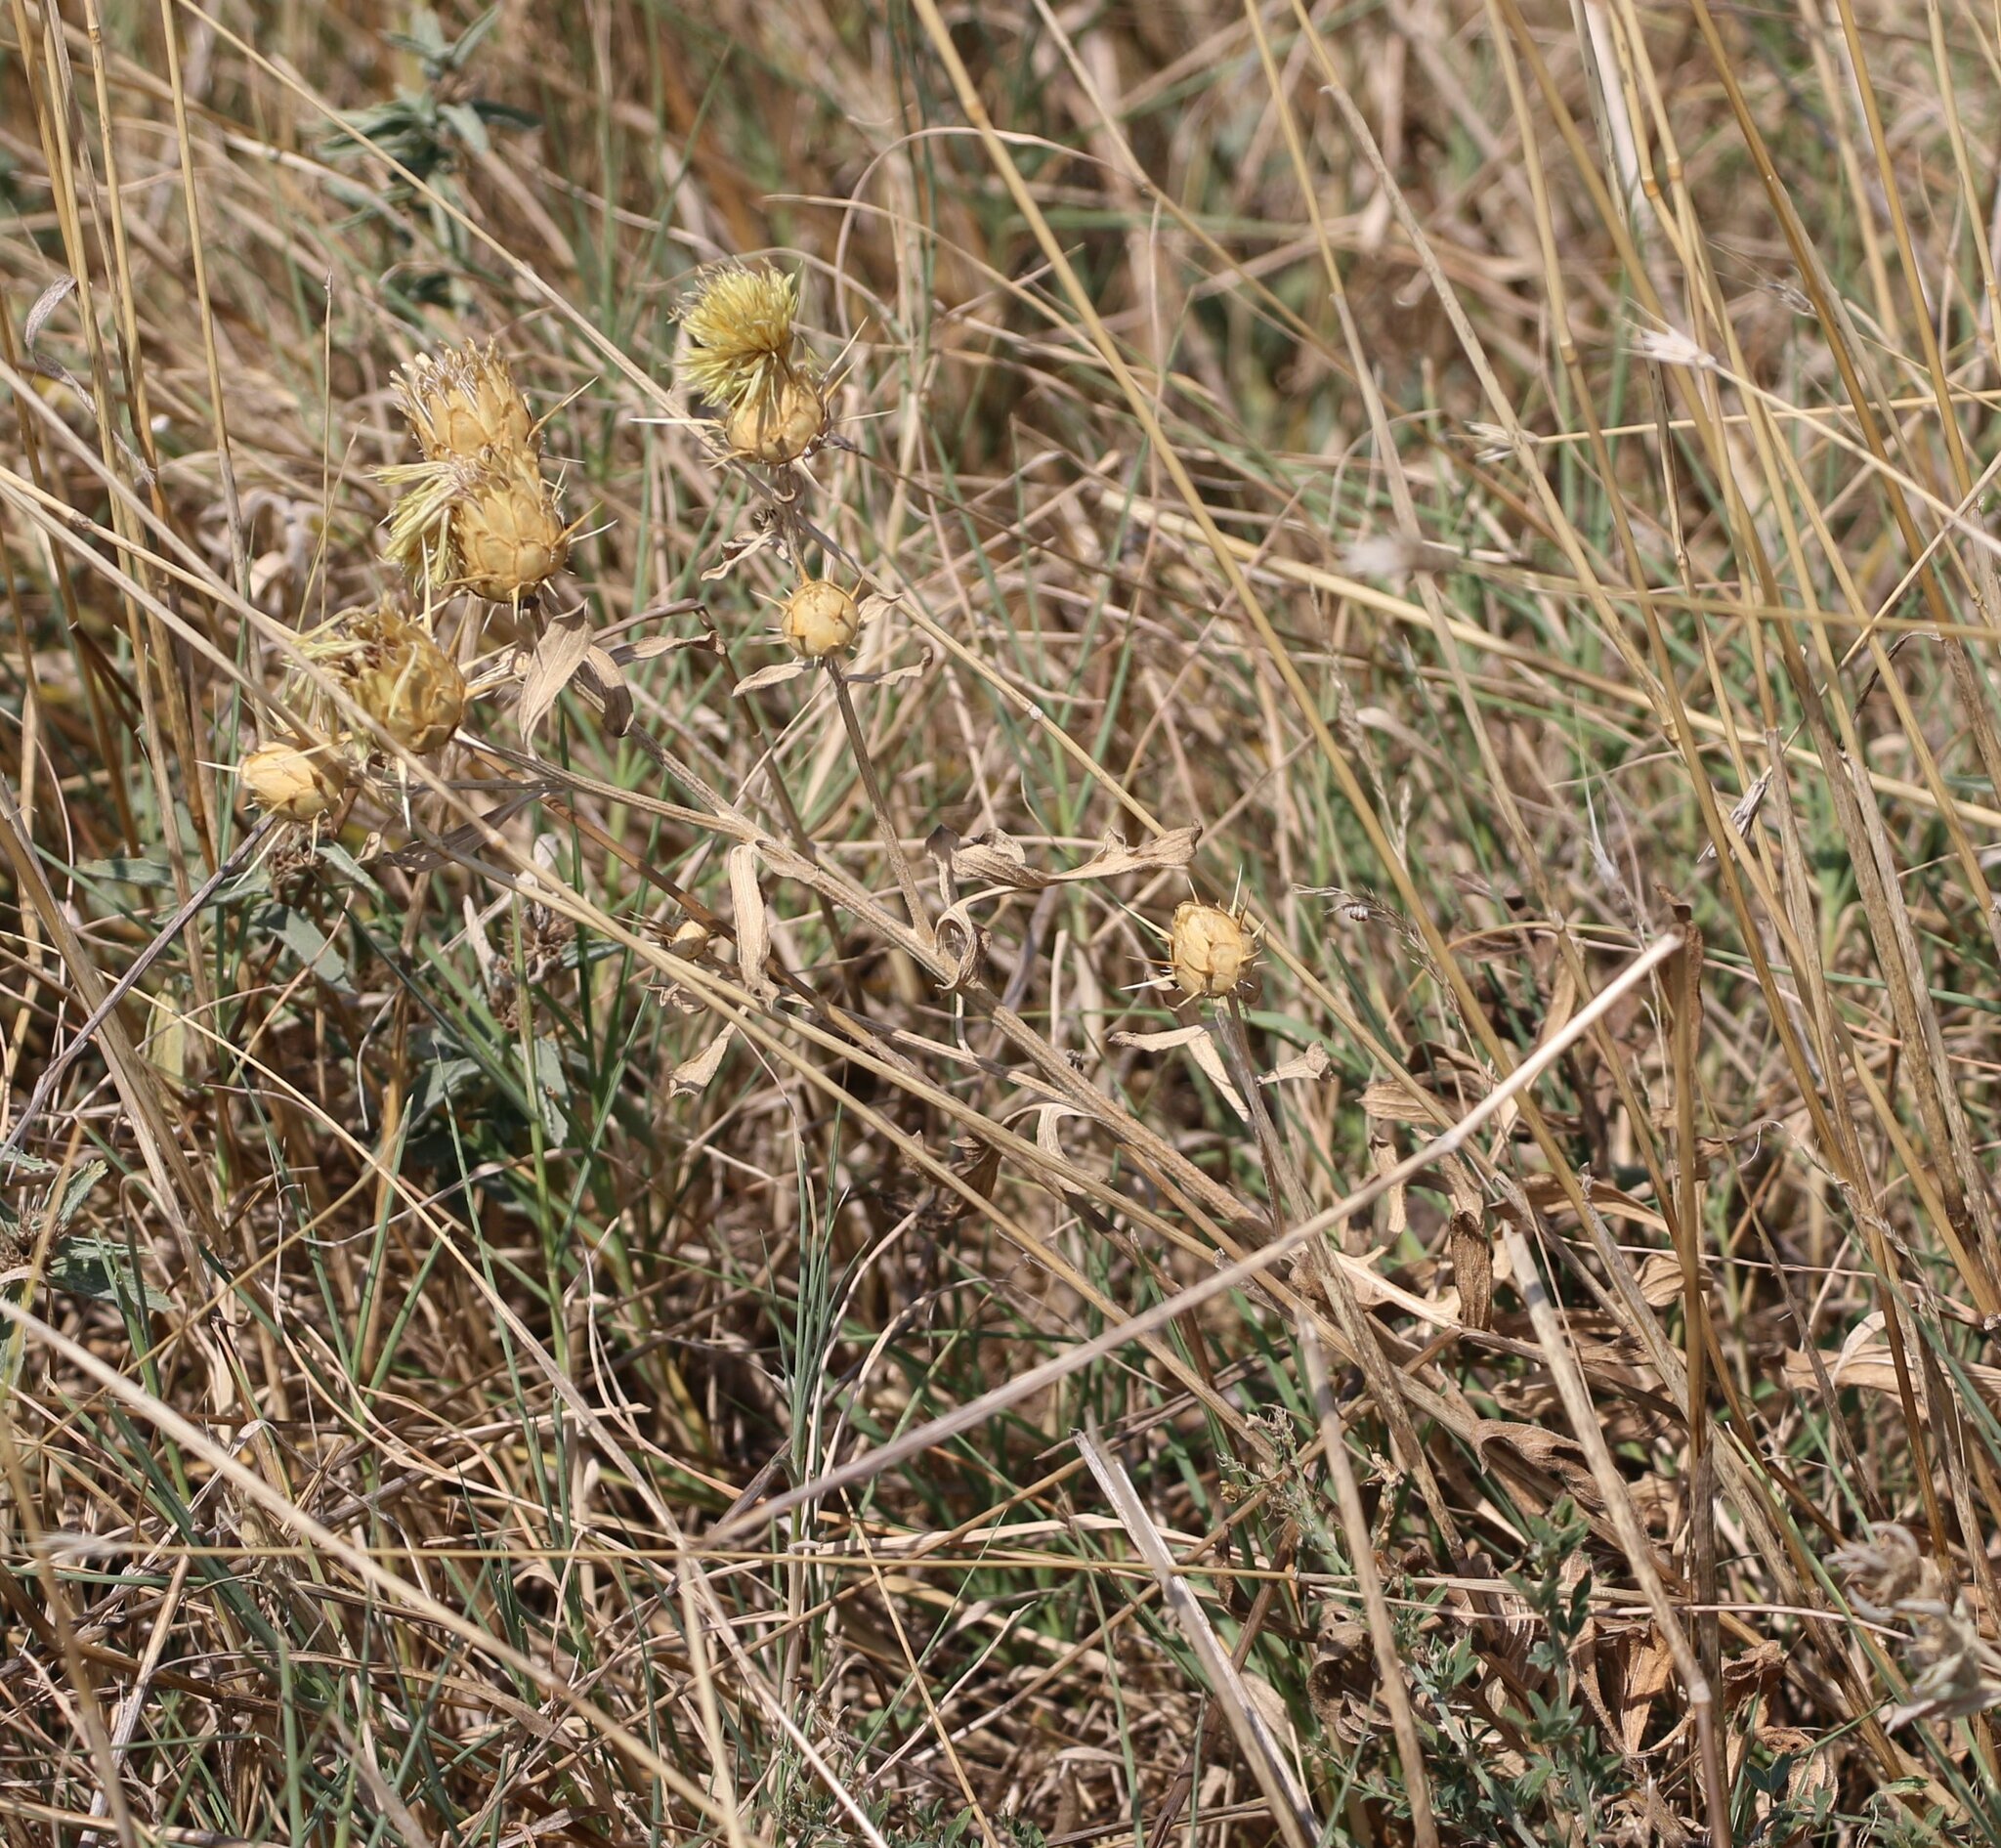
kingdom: Plantae
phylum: Tracheophyta
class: Magnoliopsida
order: Asterales
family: Asteraceae
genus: Centaurea
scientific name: Centaurea salonitana
